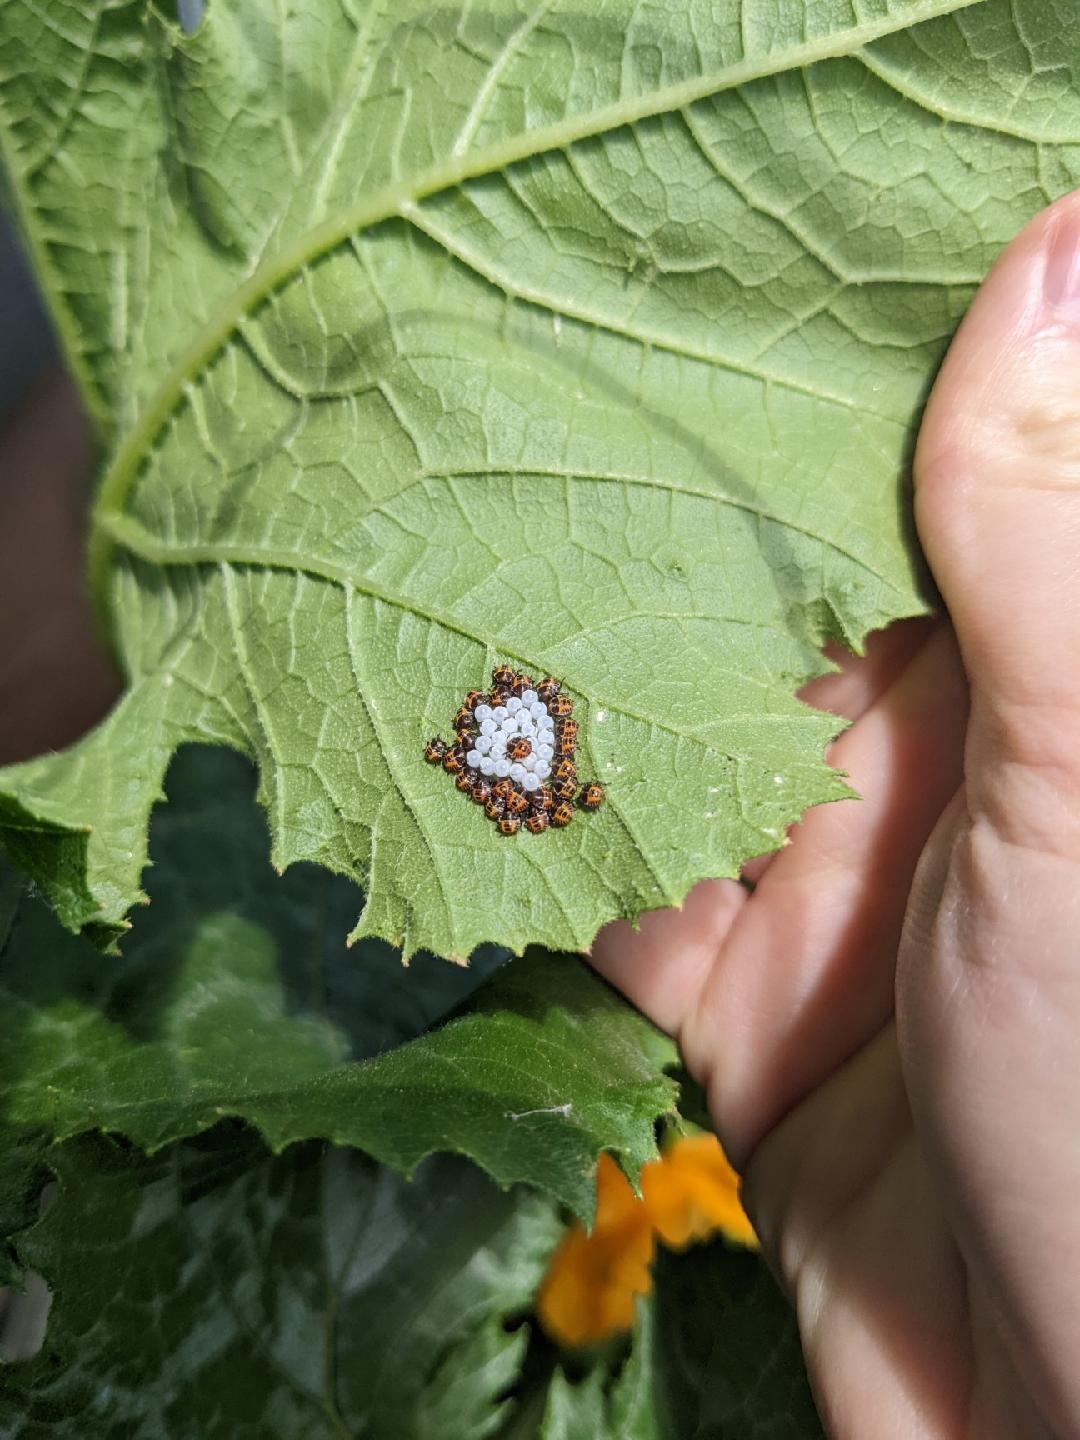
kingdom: Animalia
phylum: Arthropoda
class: Insecta
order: Hemiptera
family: Pentatomidae
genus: Halyomorpha
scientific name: Halyomorpha halys
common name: Brown marmorated stink bug
